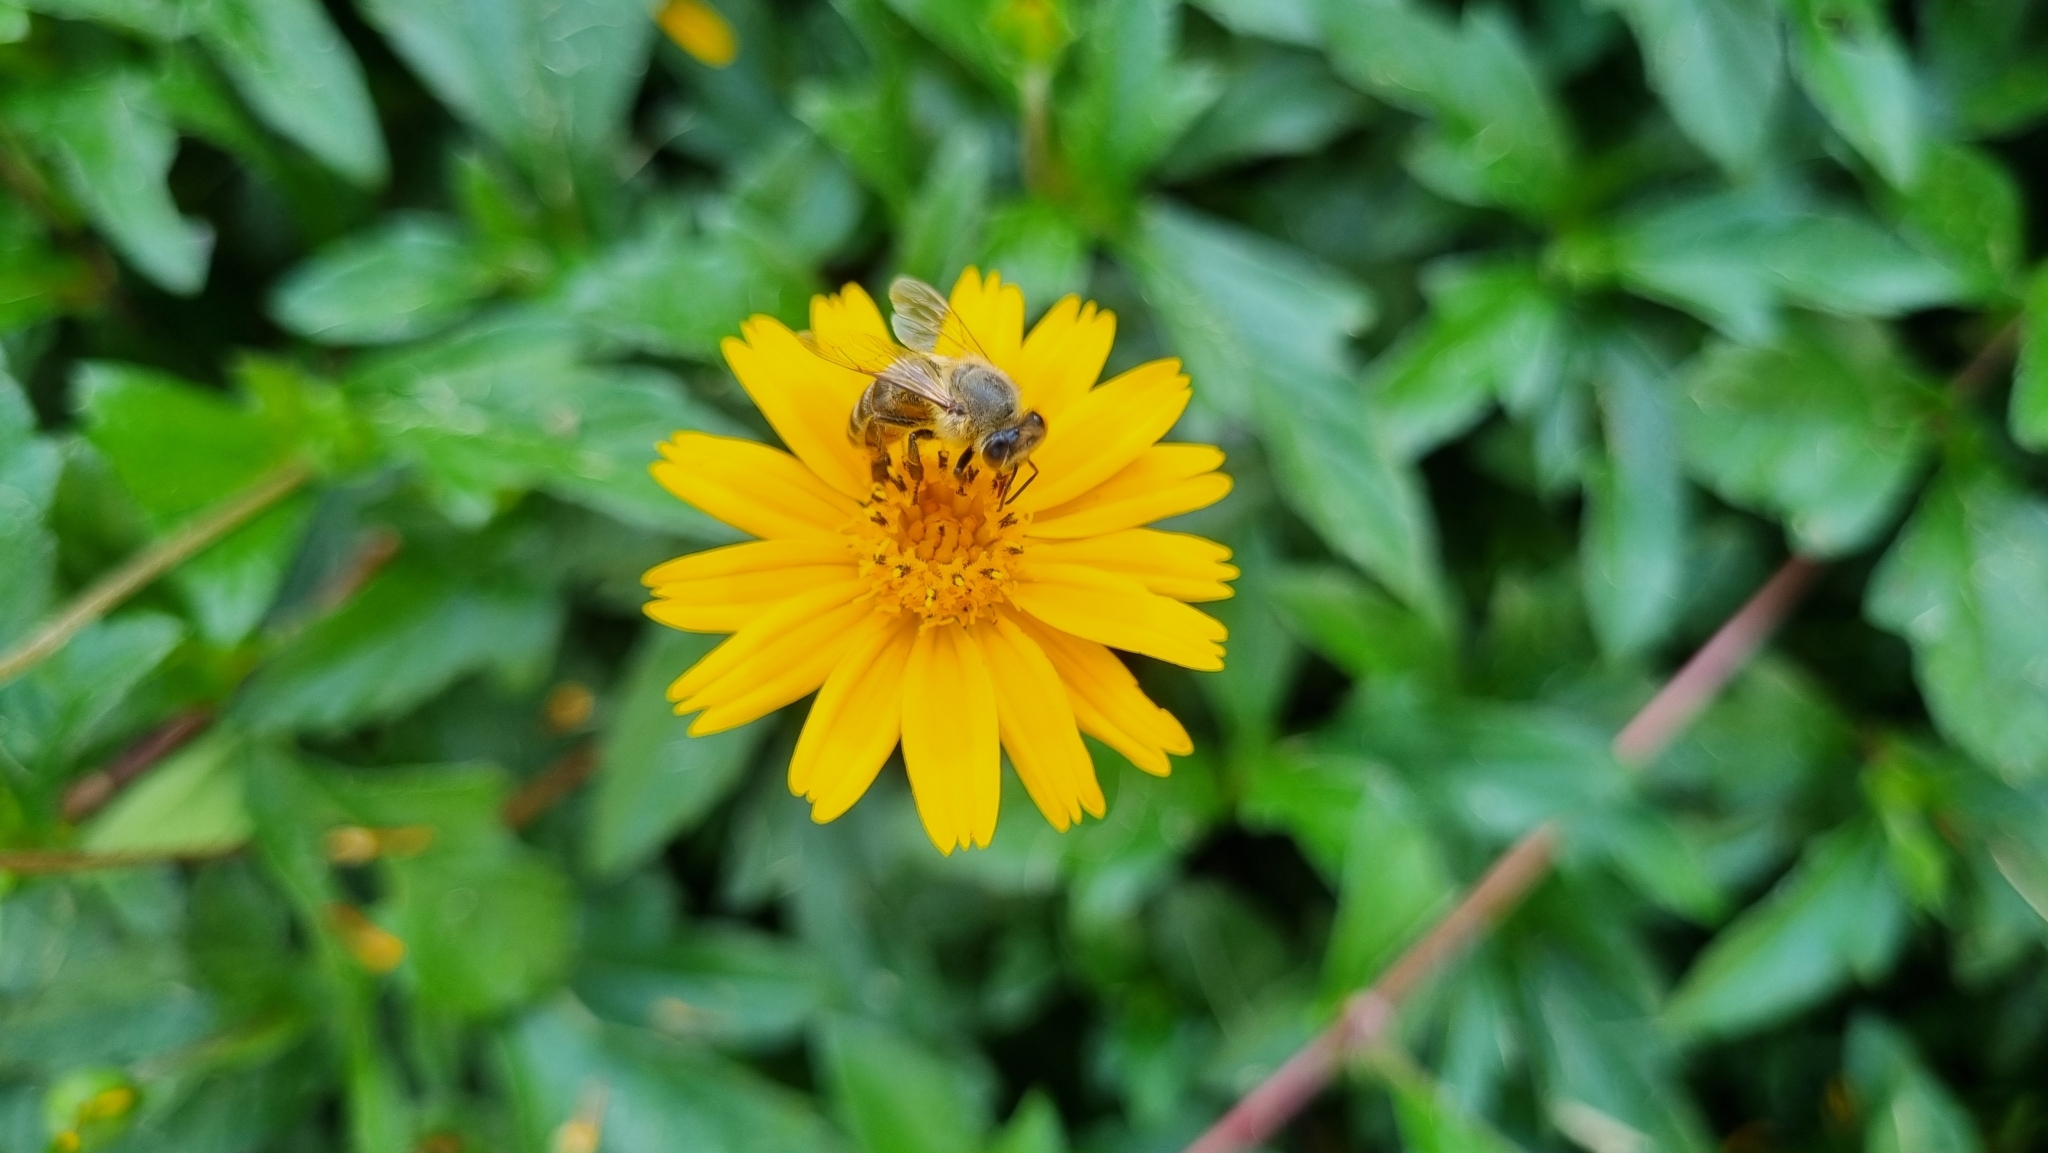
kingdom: Animalia
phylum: Arthropoda
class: Insecta
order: Hymenoptera
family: Apidae
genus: Apis
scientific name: Apis mellifera
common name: Honey bee
